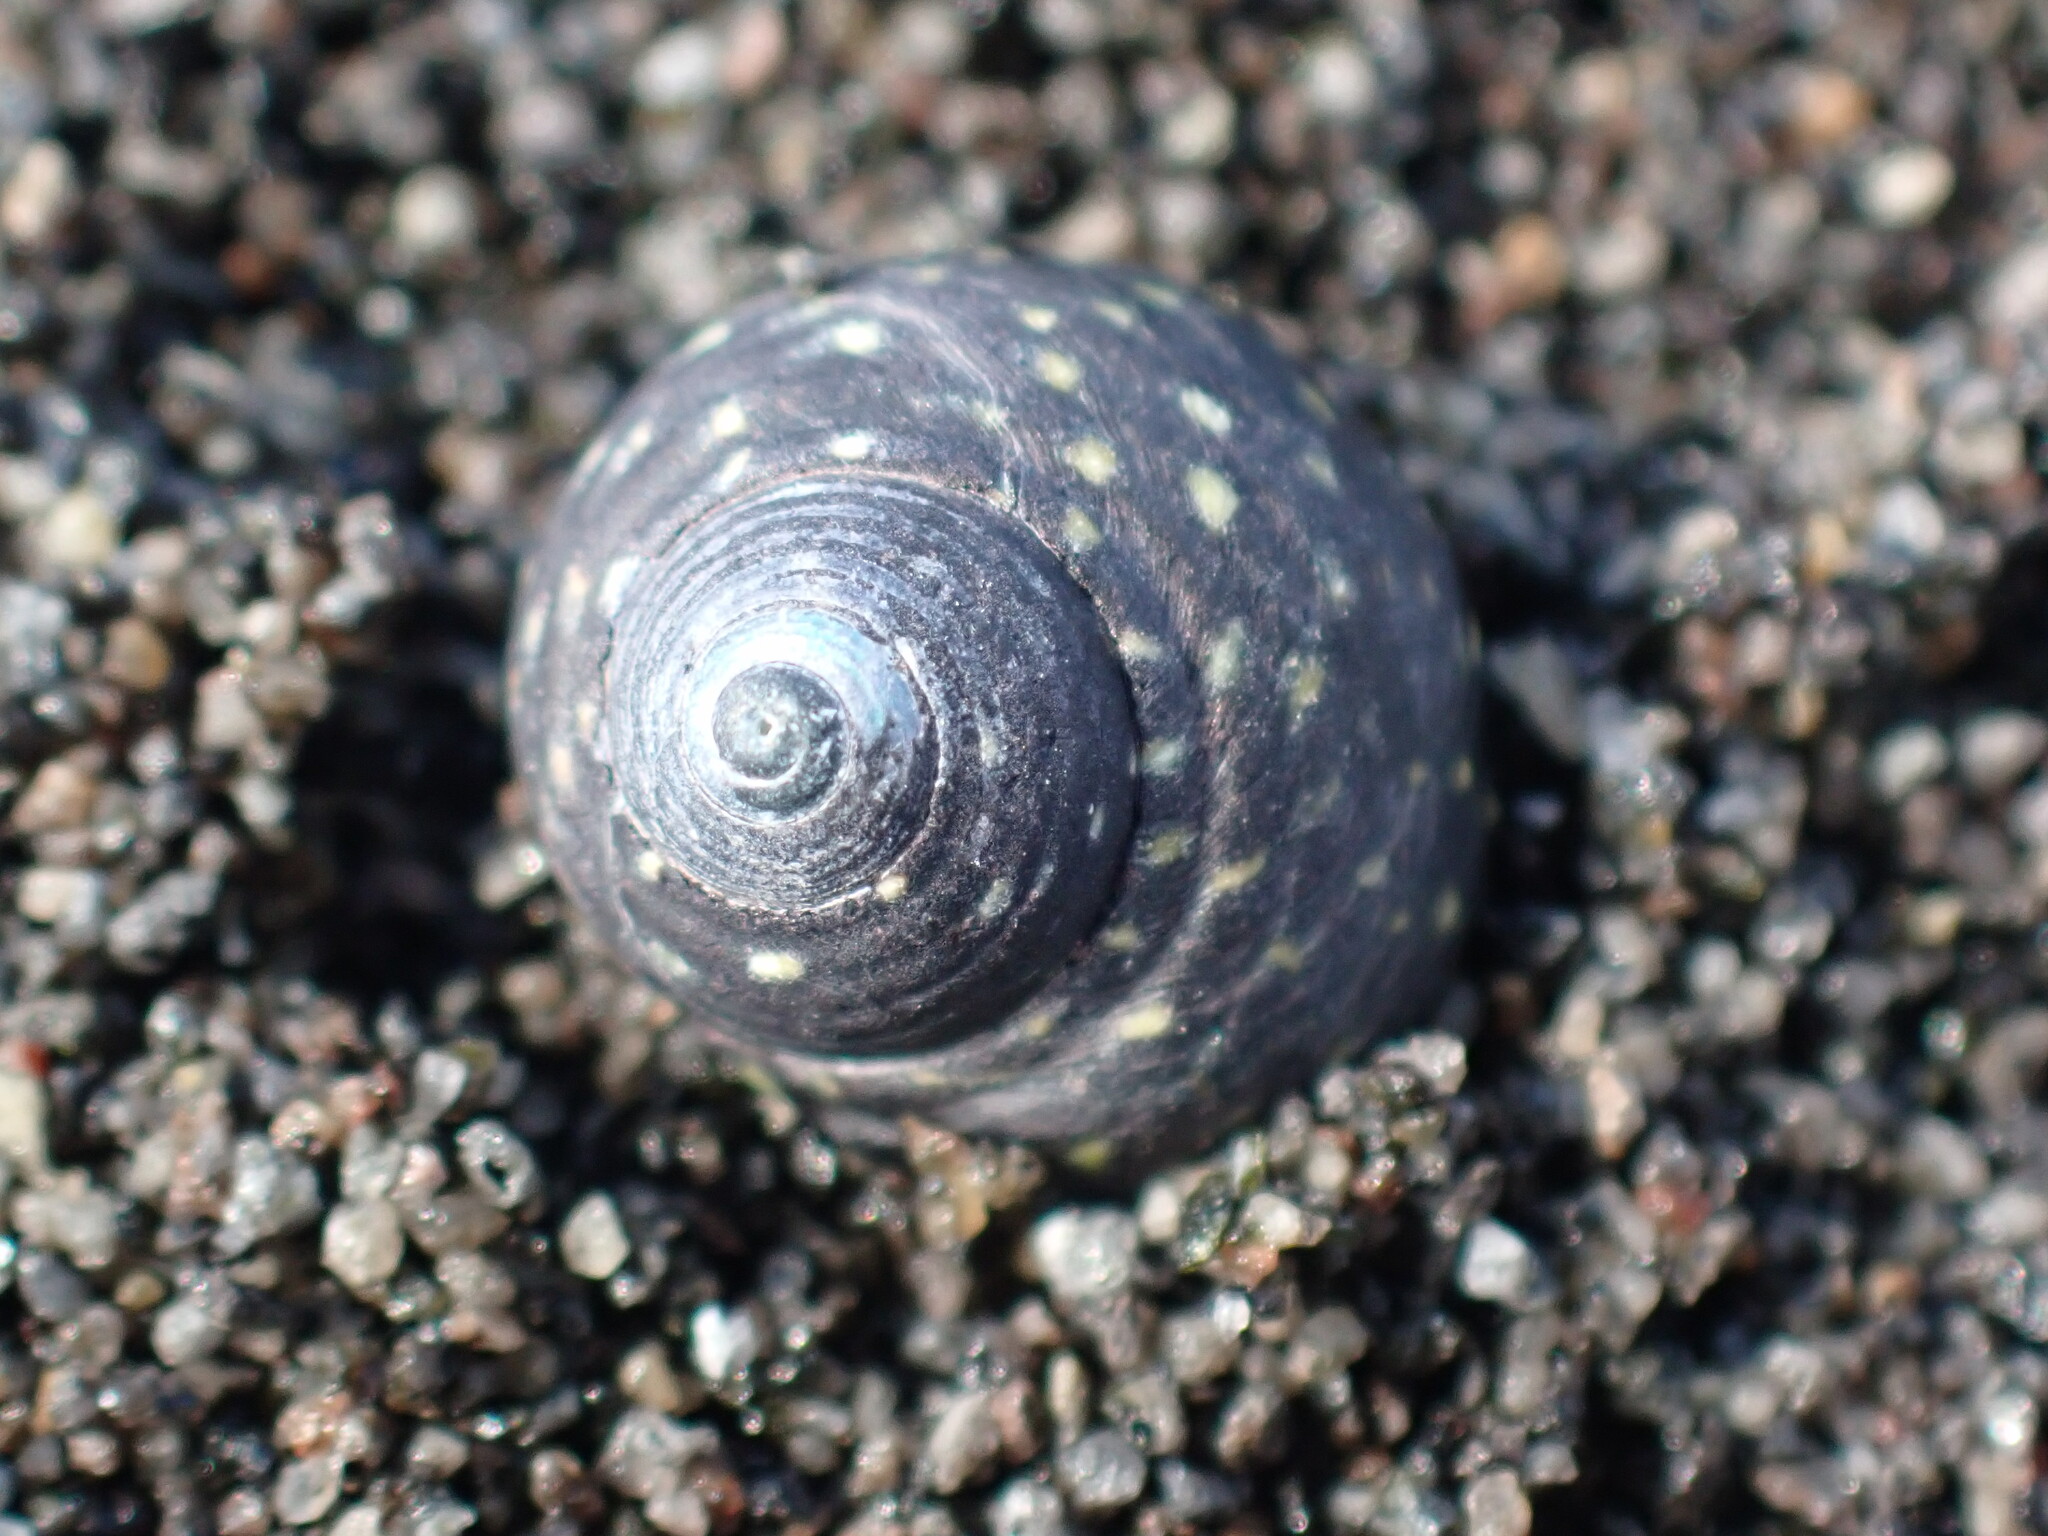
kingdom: Animalia
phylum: Mollusca
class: Gastropoda
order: Trochida
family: Trochidae
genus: Diloma
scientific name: Diloma aridum
